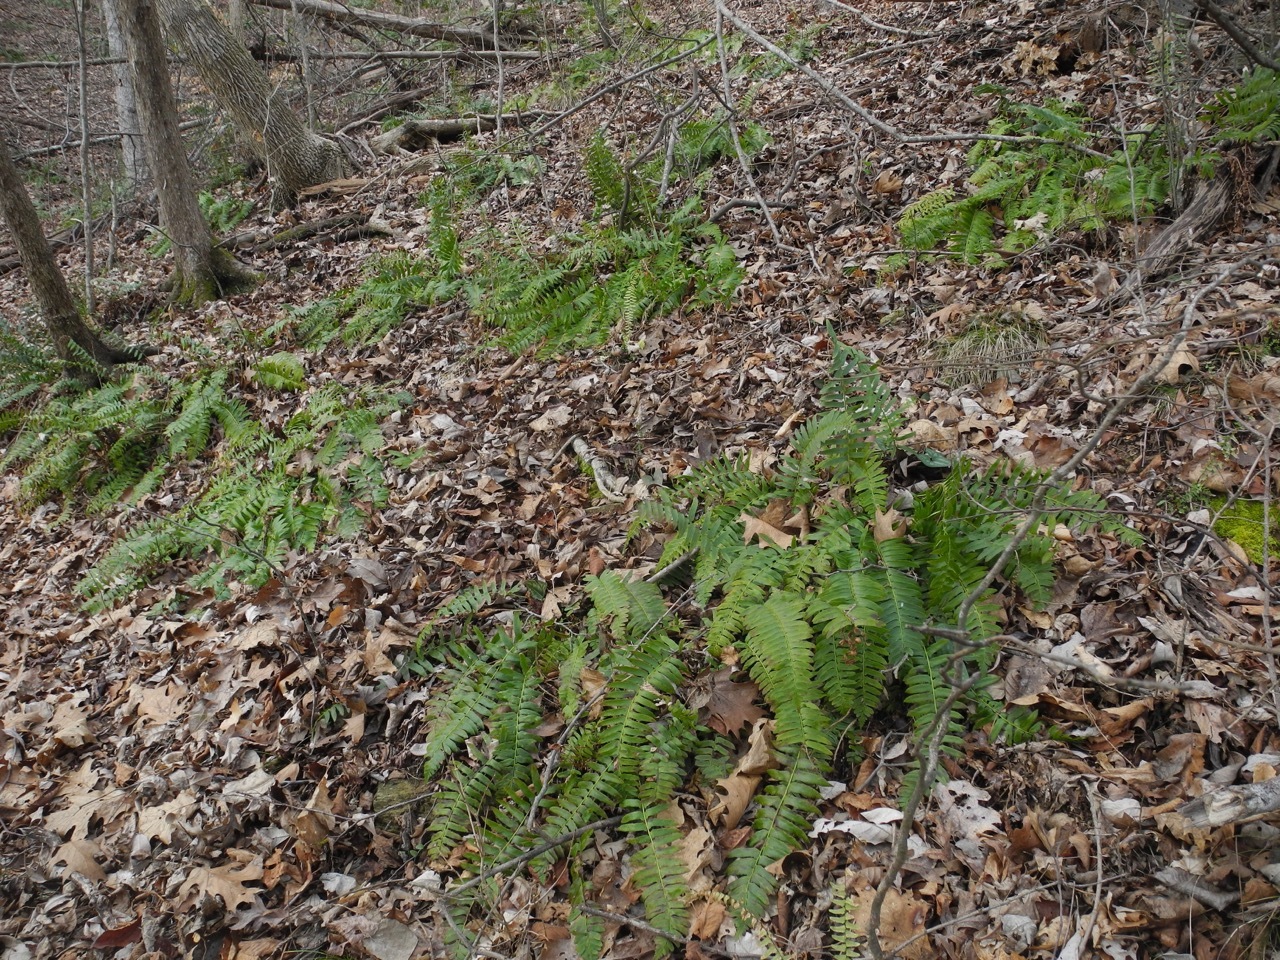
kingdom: Plantae
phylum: Tracheophyta
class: Polypodiopsida
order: Polypodiales
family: Dryopteridaceae
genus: Polystichum
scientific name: Polystichum acrostichoides
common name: Christmas fern
